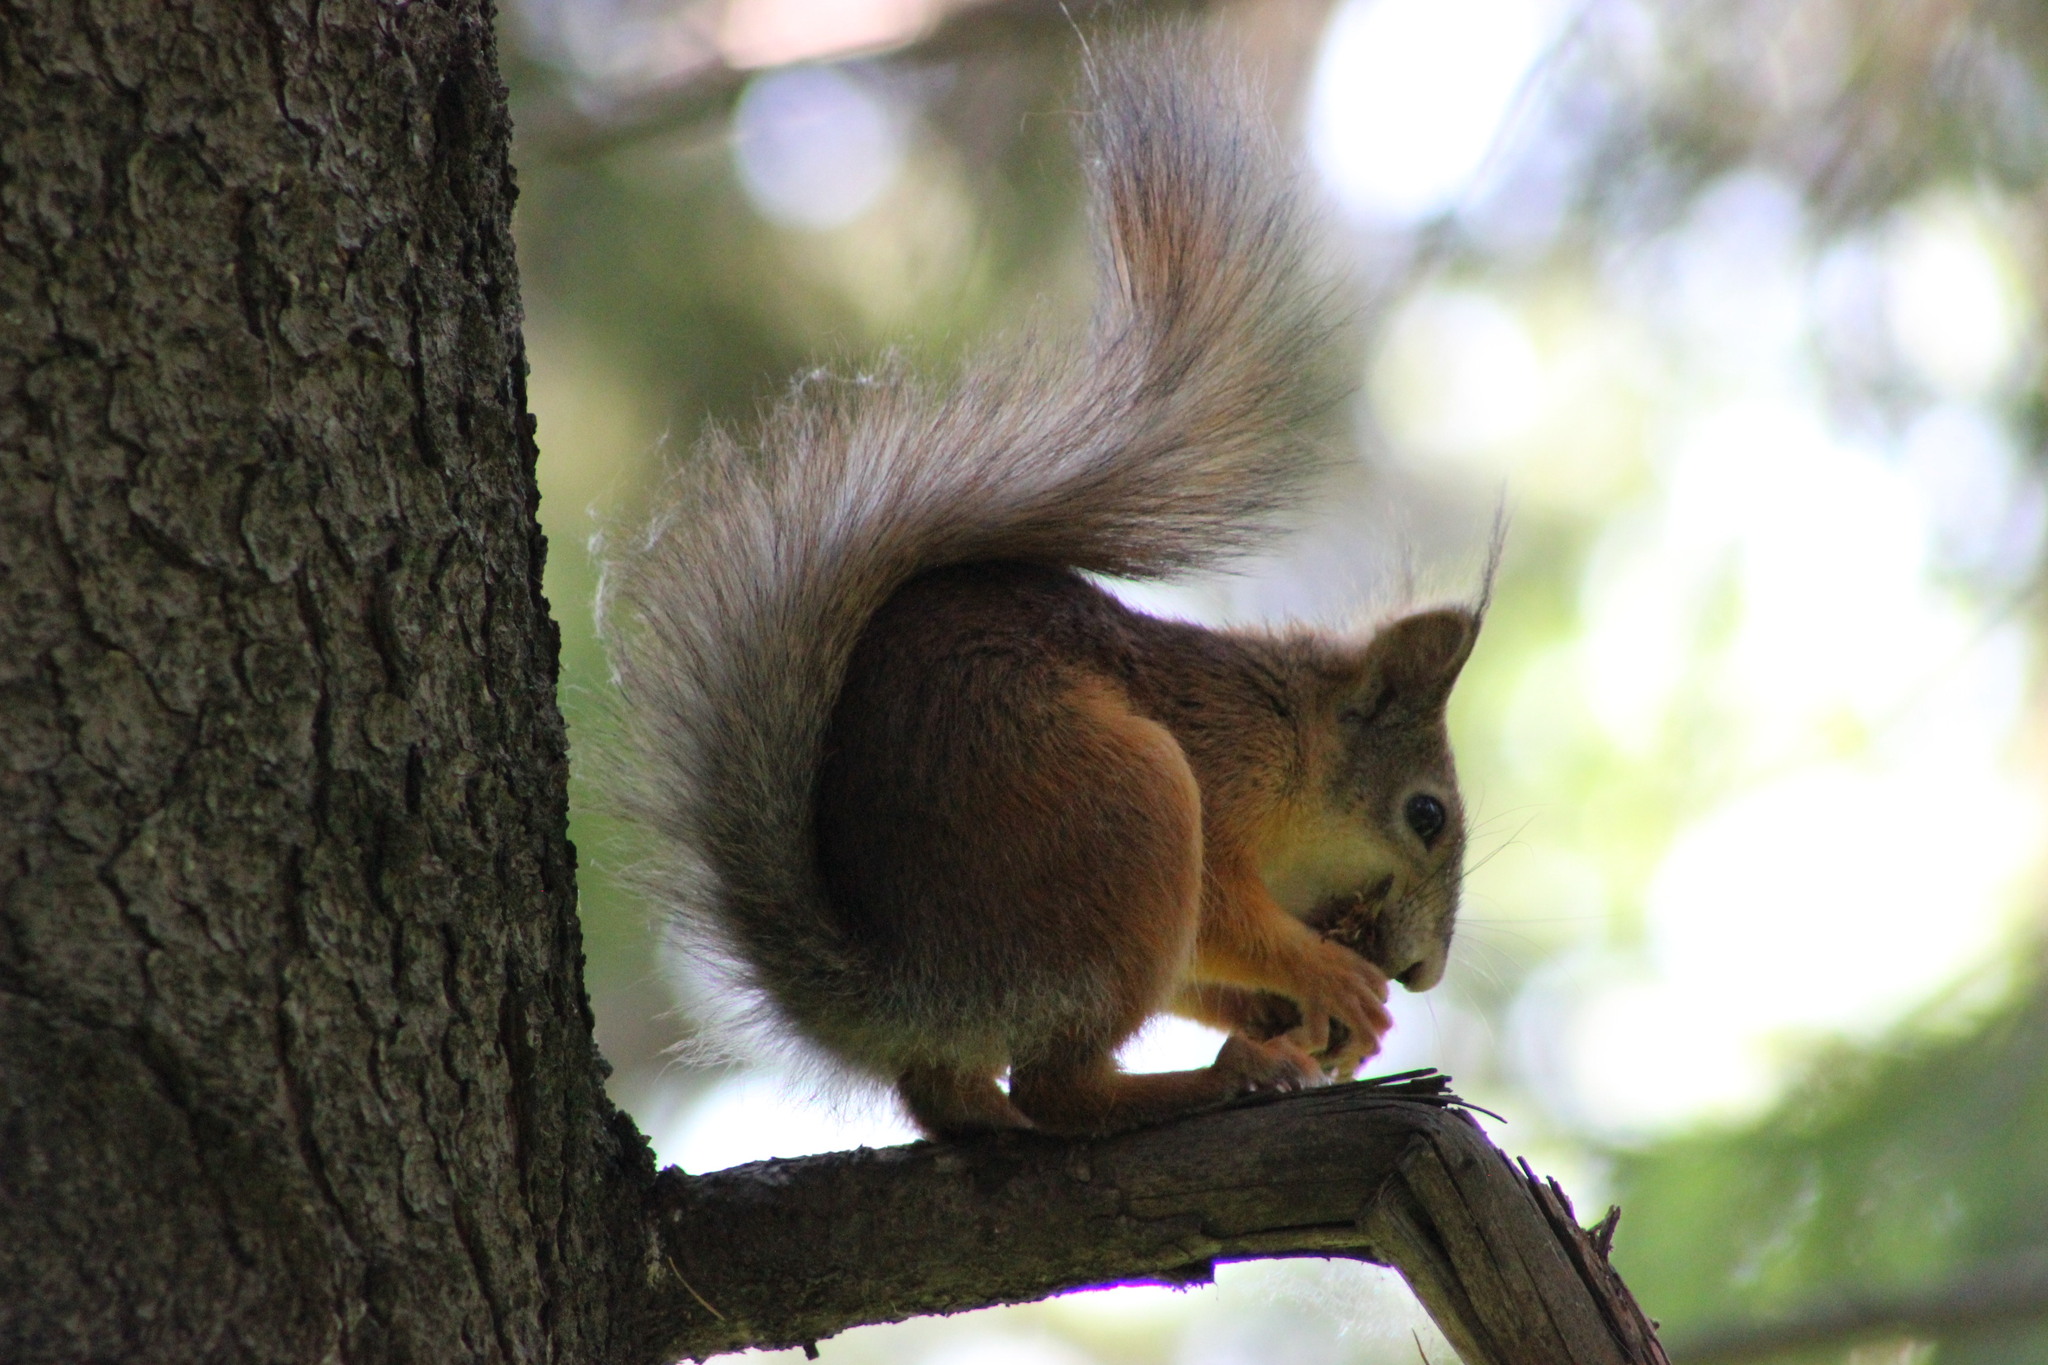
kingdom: Animalia
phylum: Chordata
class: Mammalia
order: Rodentia
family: Sciuridae
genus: Sciurus
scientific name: Sciurus vulgaris
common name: Eurasian red squirrel
